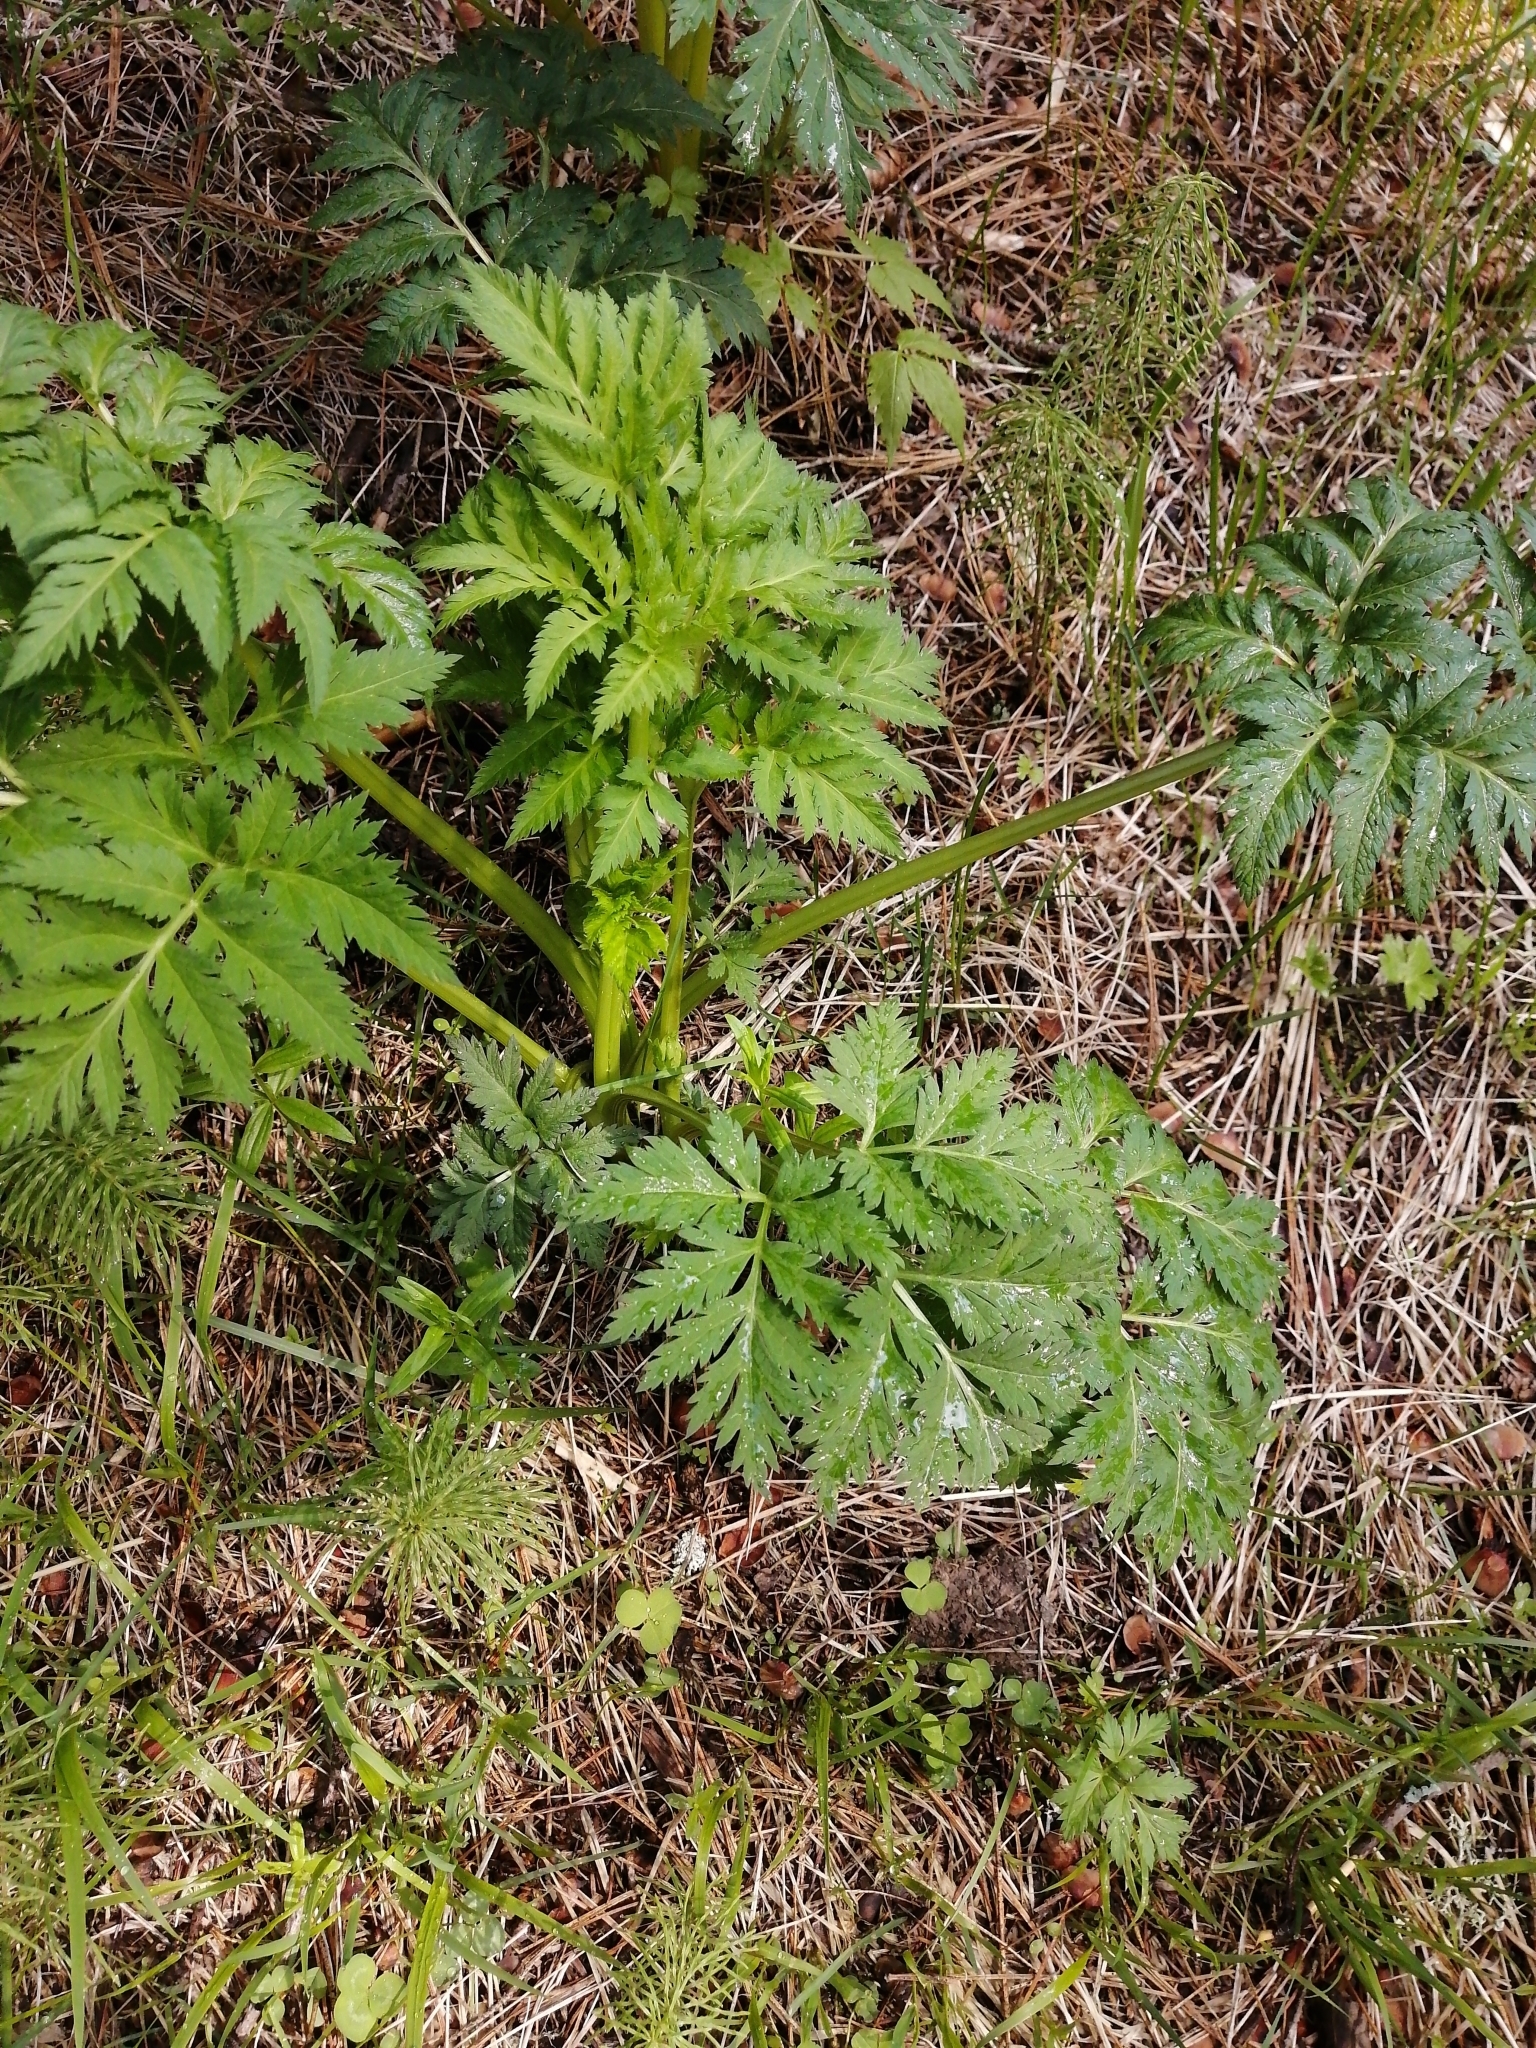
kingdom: Plantae
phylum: Tracheophyta
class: Magnoliopsida
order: Apiales
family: Apiaceae
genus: Pleurospermum
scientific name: Pleurospermum uralense
